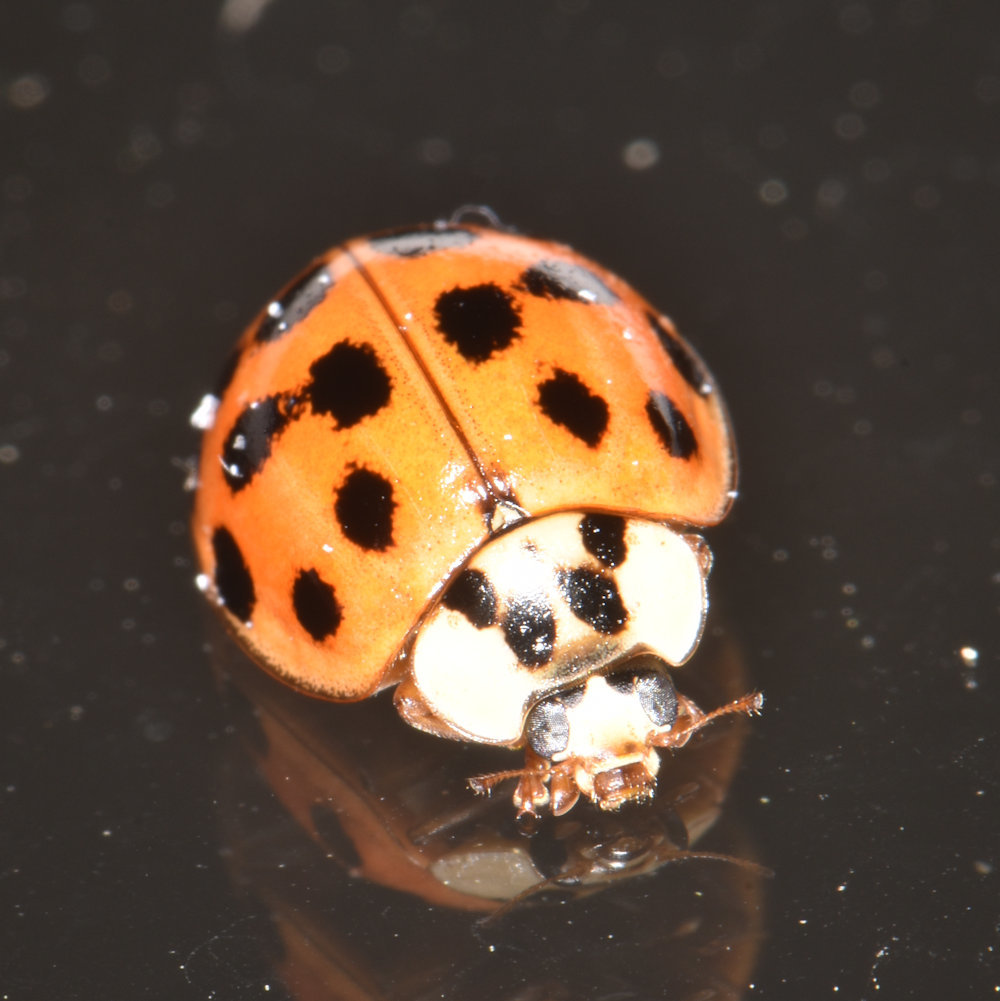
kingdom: Animalia
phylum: Arthropoda
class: Insecta
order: Coleoptera
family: Coccinellidae
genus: Harmonia
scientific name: Harmonia axyridis
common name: Harlequin ladybird
